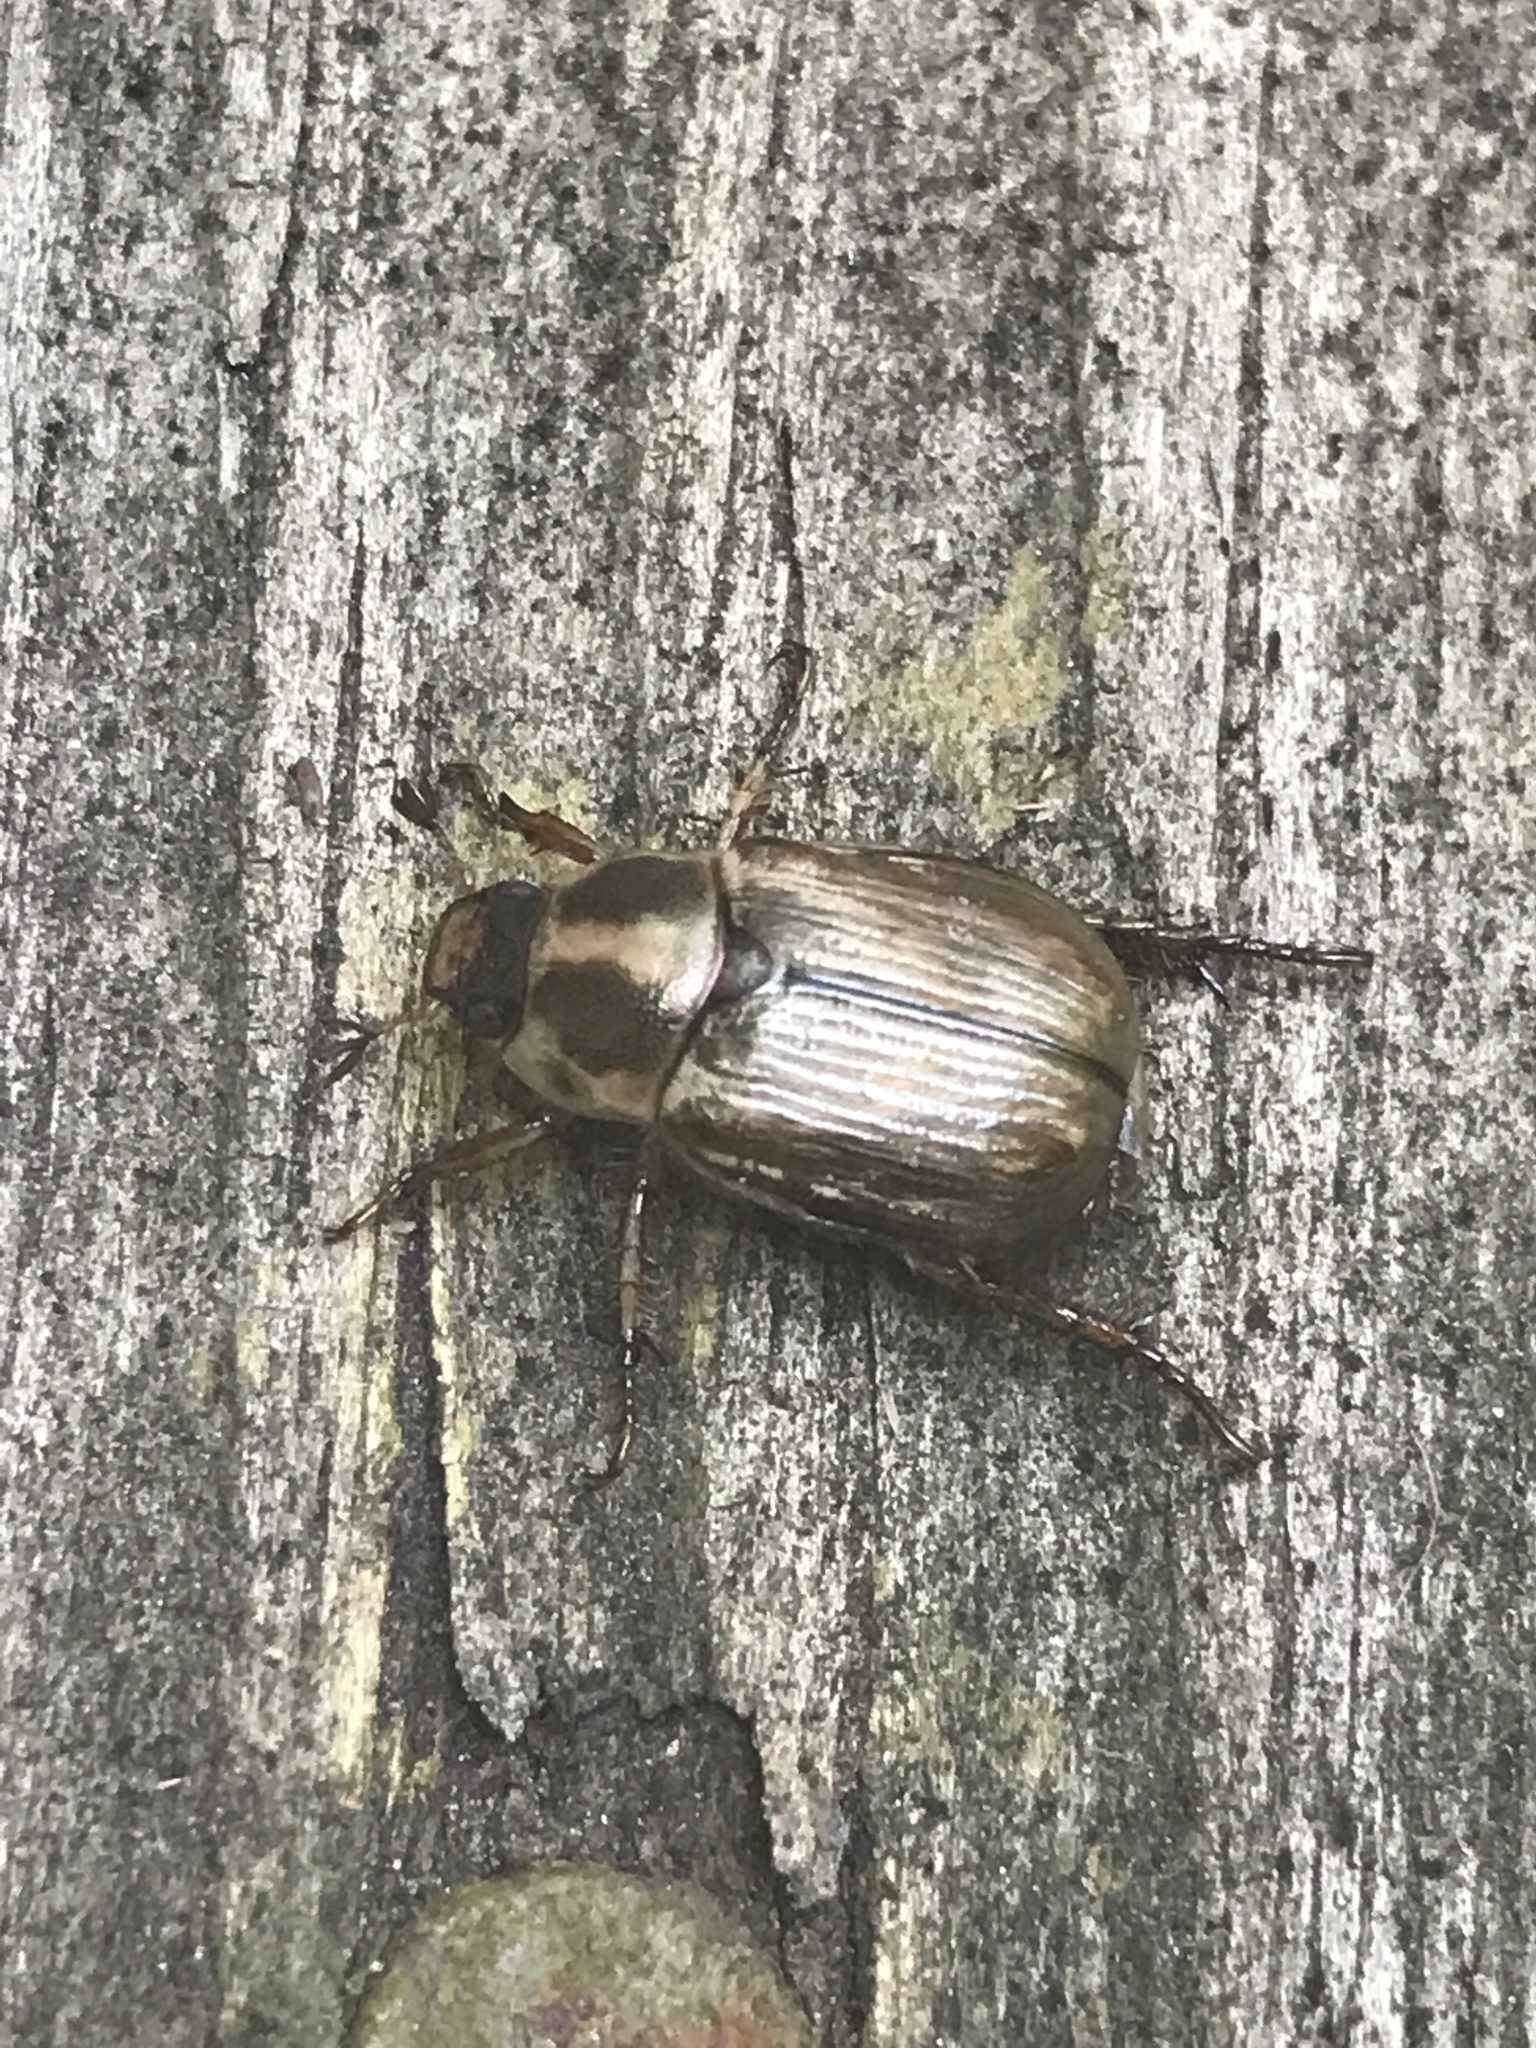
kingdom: Animalia
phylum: Arthropoda
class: Insecta
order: Coleoptera
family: Scarabaeidae
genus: Exomala
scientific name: Exomala orientalis
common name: Oriental beetle
